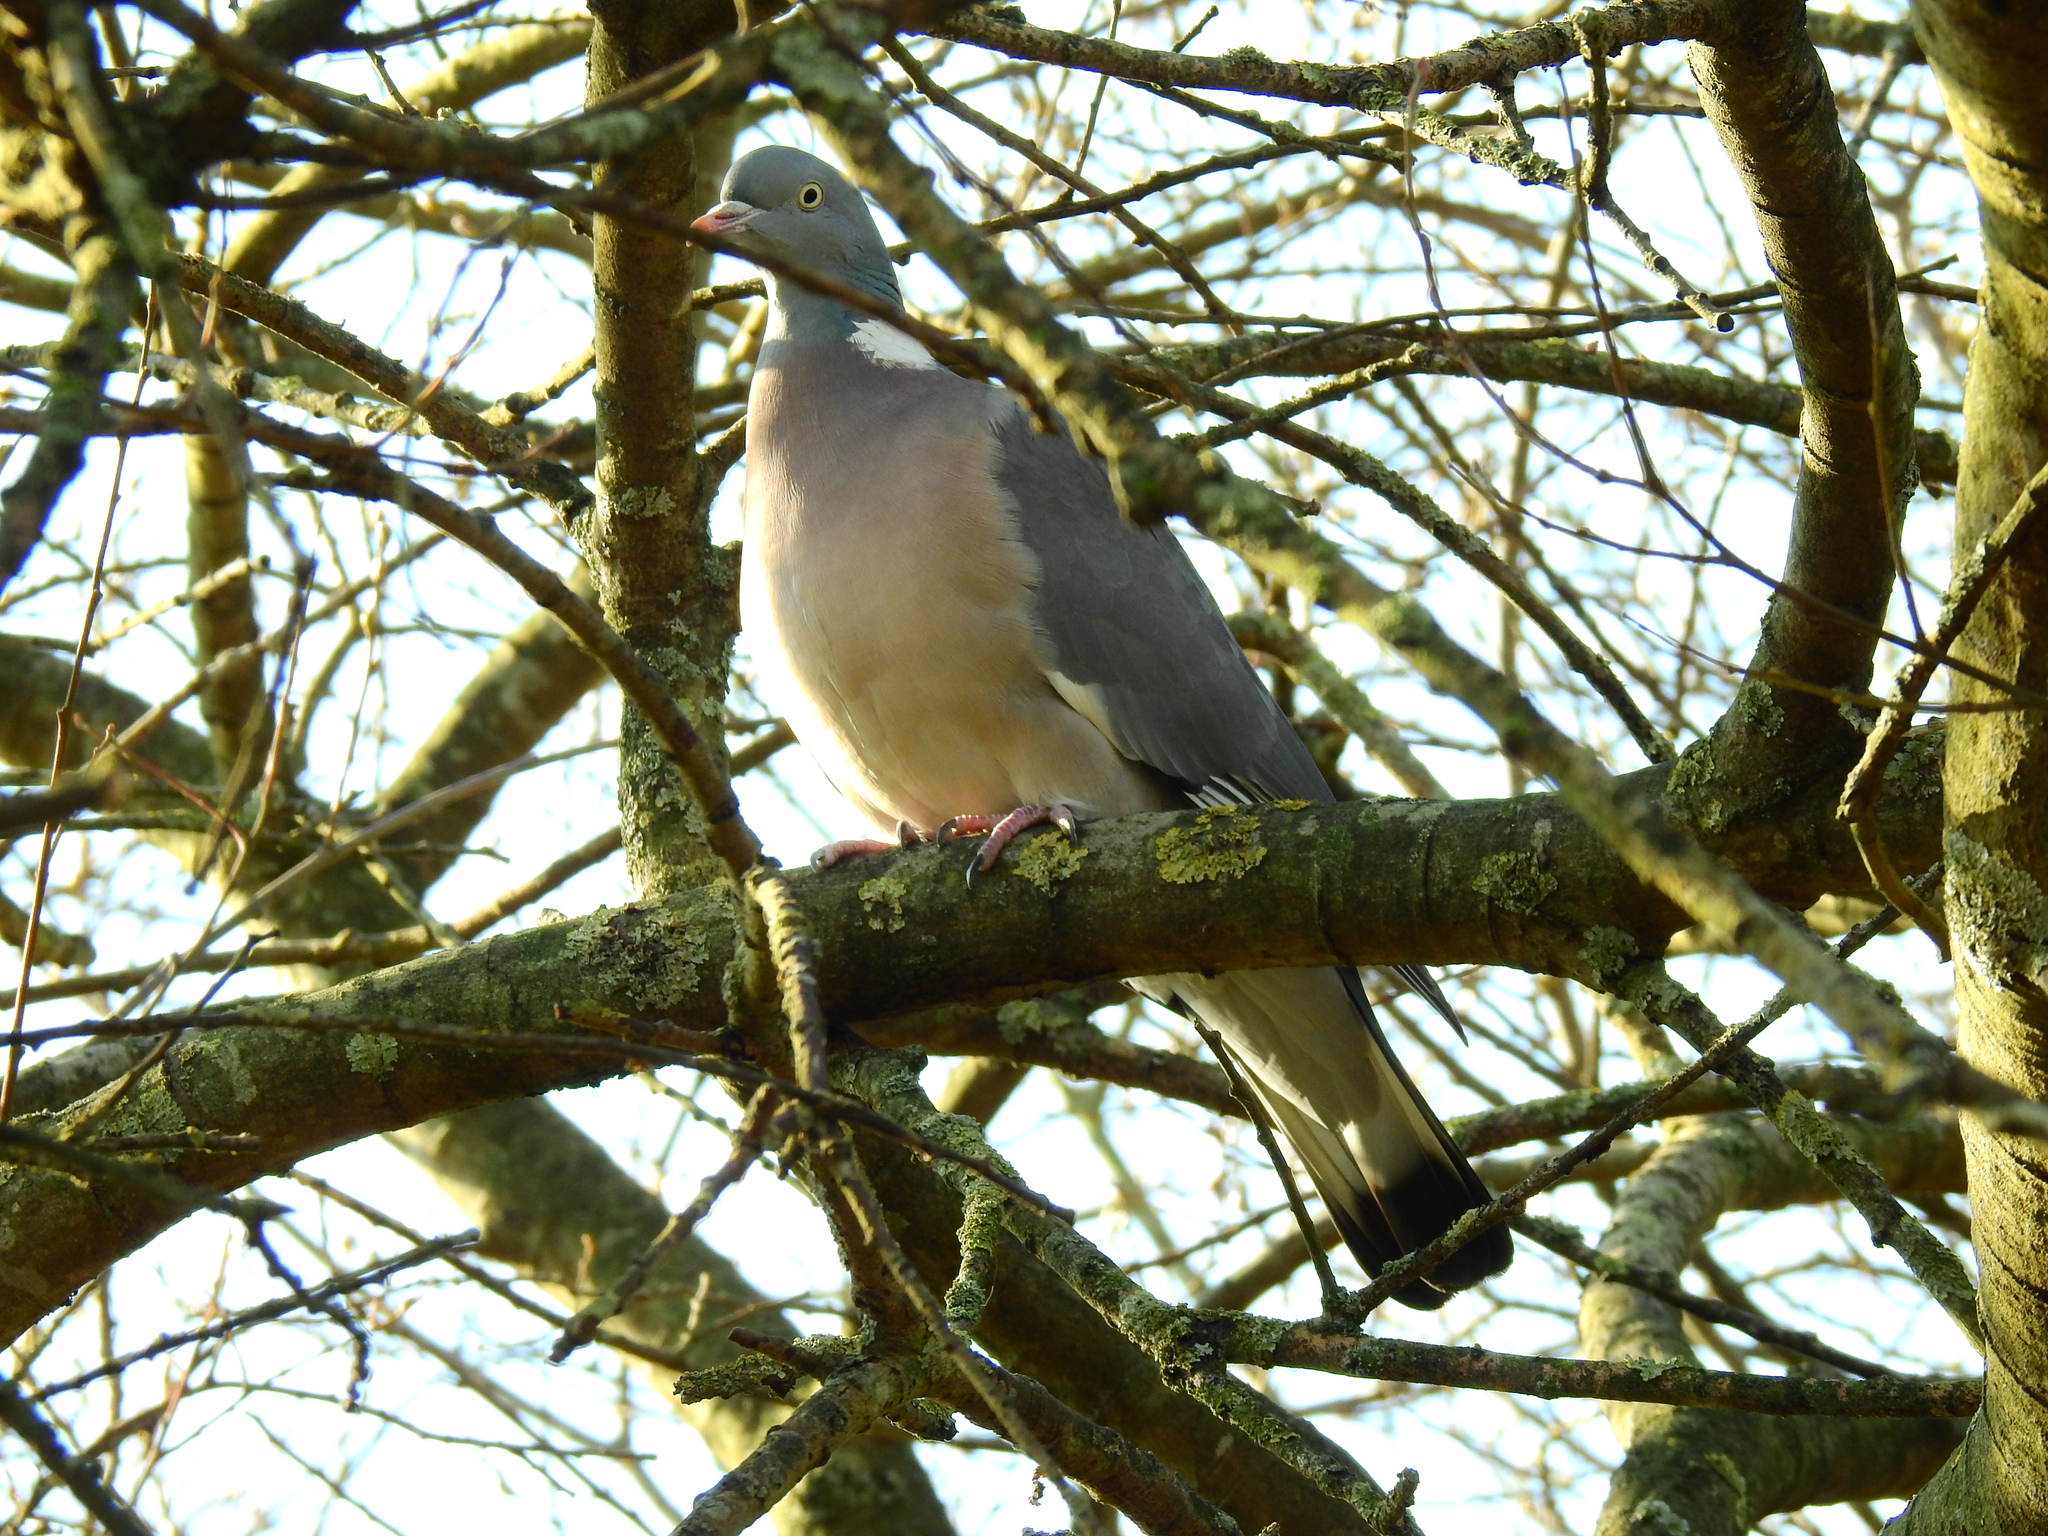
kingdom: Animalia
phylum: Chordata
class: Aves
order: Columbiformes
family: Columbidae
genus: Columba
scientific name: Columba palumbus
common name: Common wood pigeon
